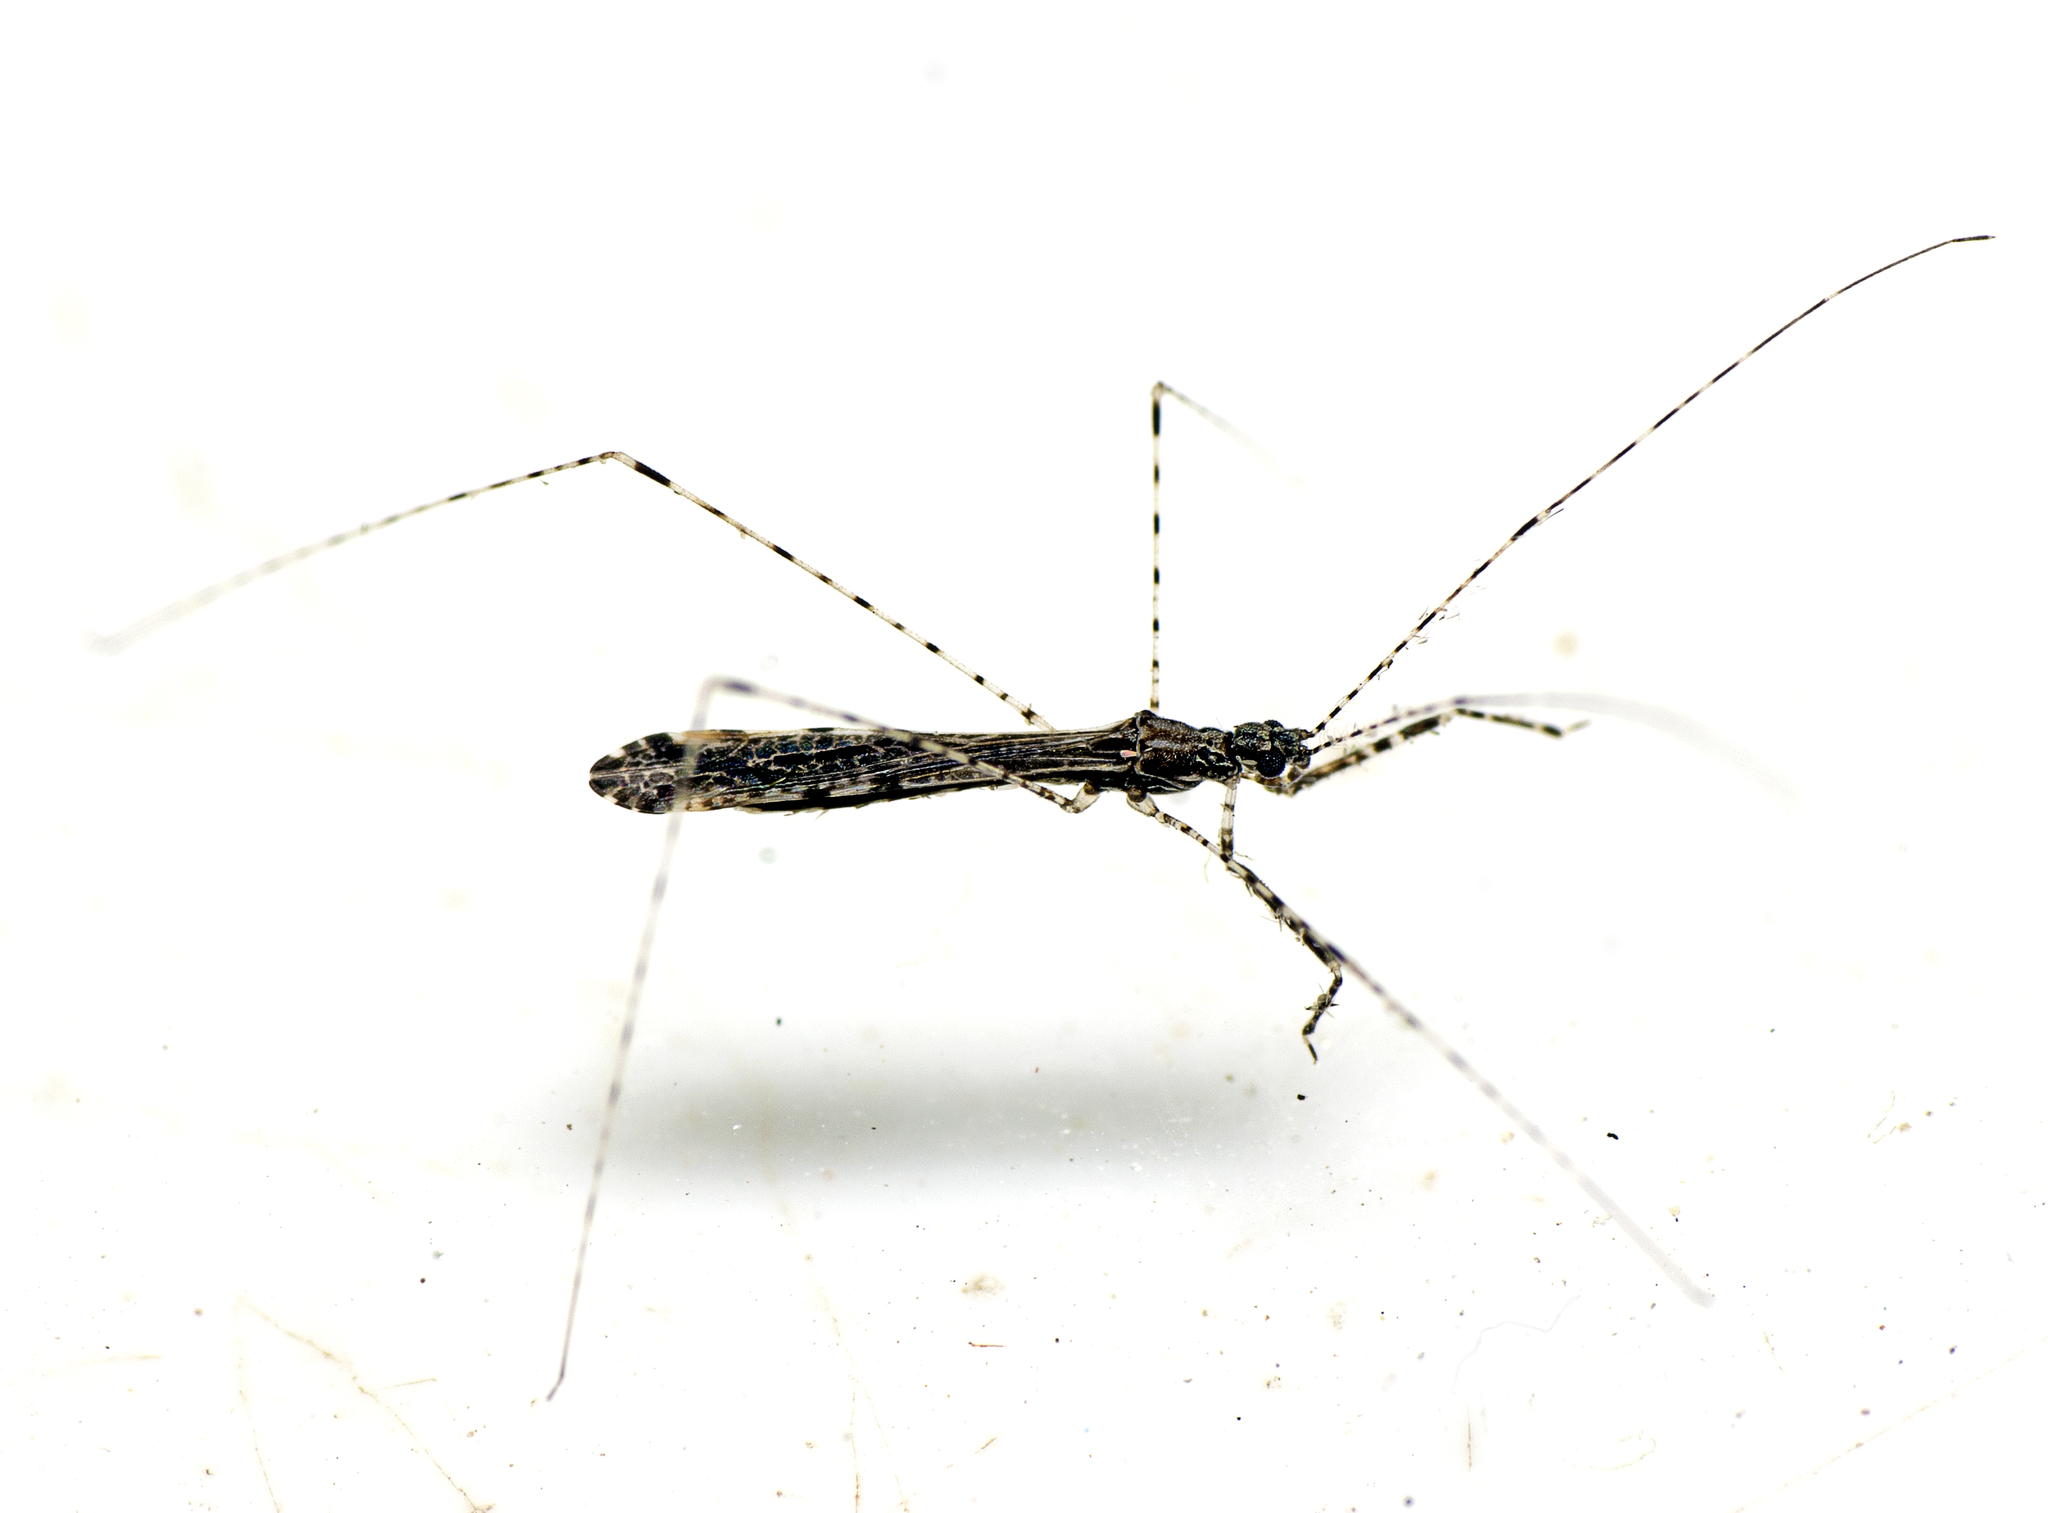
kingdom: Animalia
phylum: Arthropoda
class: Insecta
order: Hemiptera
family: Reduviidae
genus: Empicoris
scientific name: Empicoris rubromaculatus
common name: Thread-legged bug
